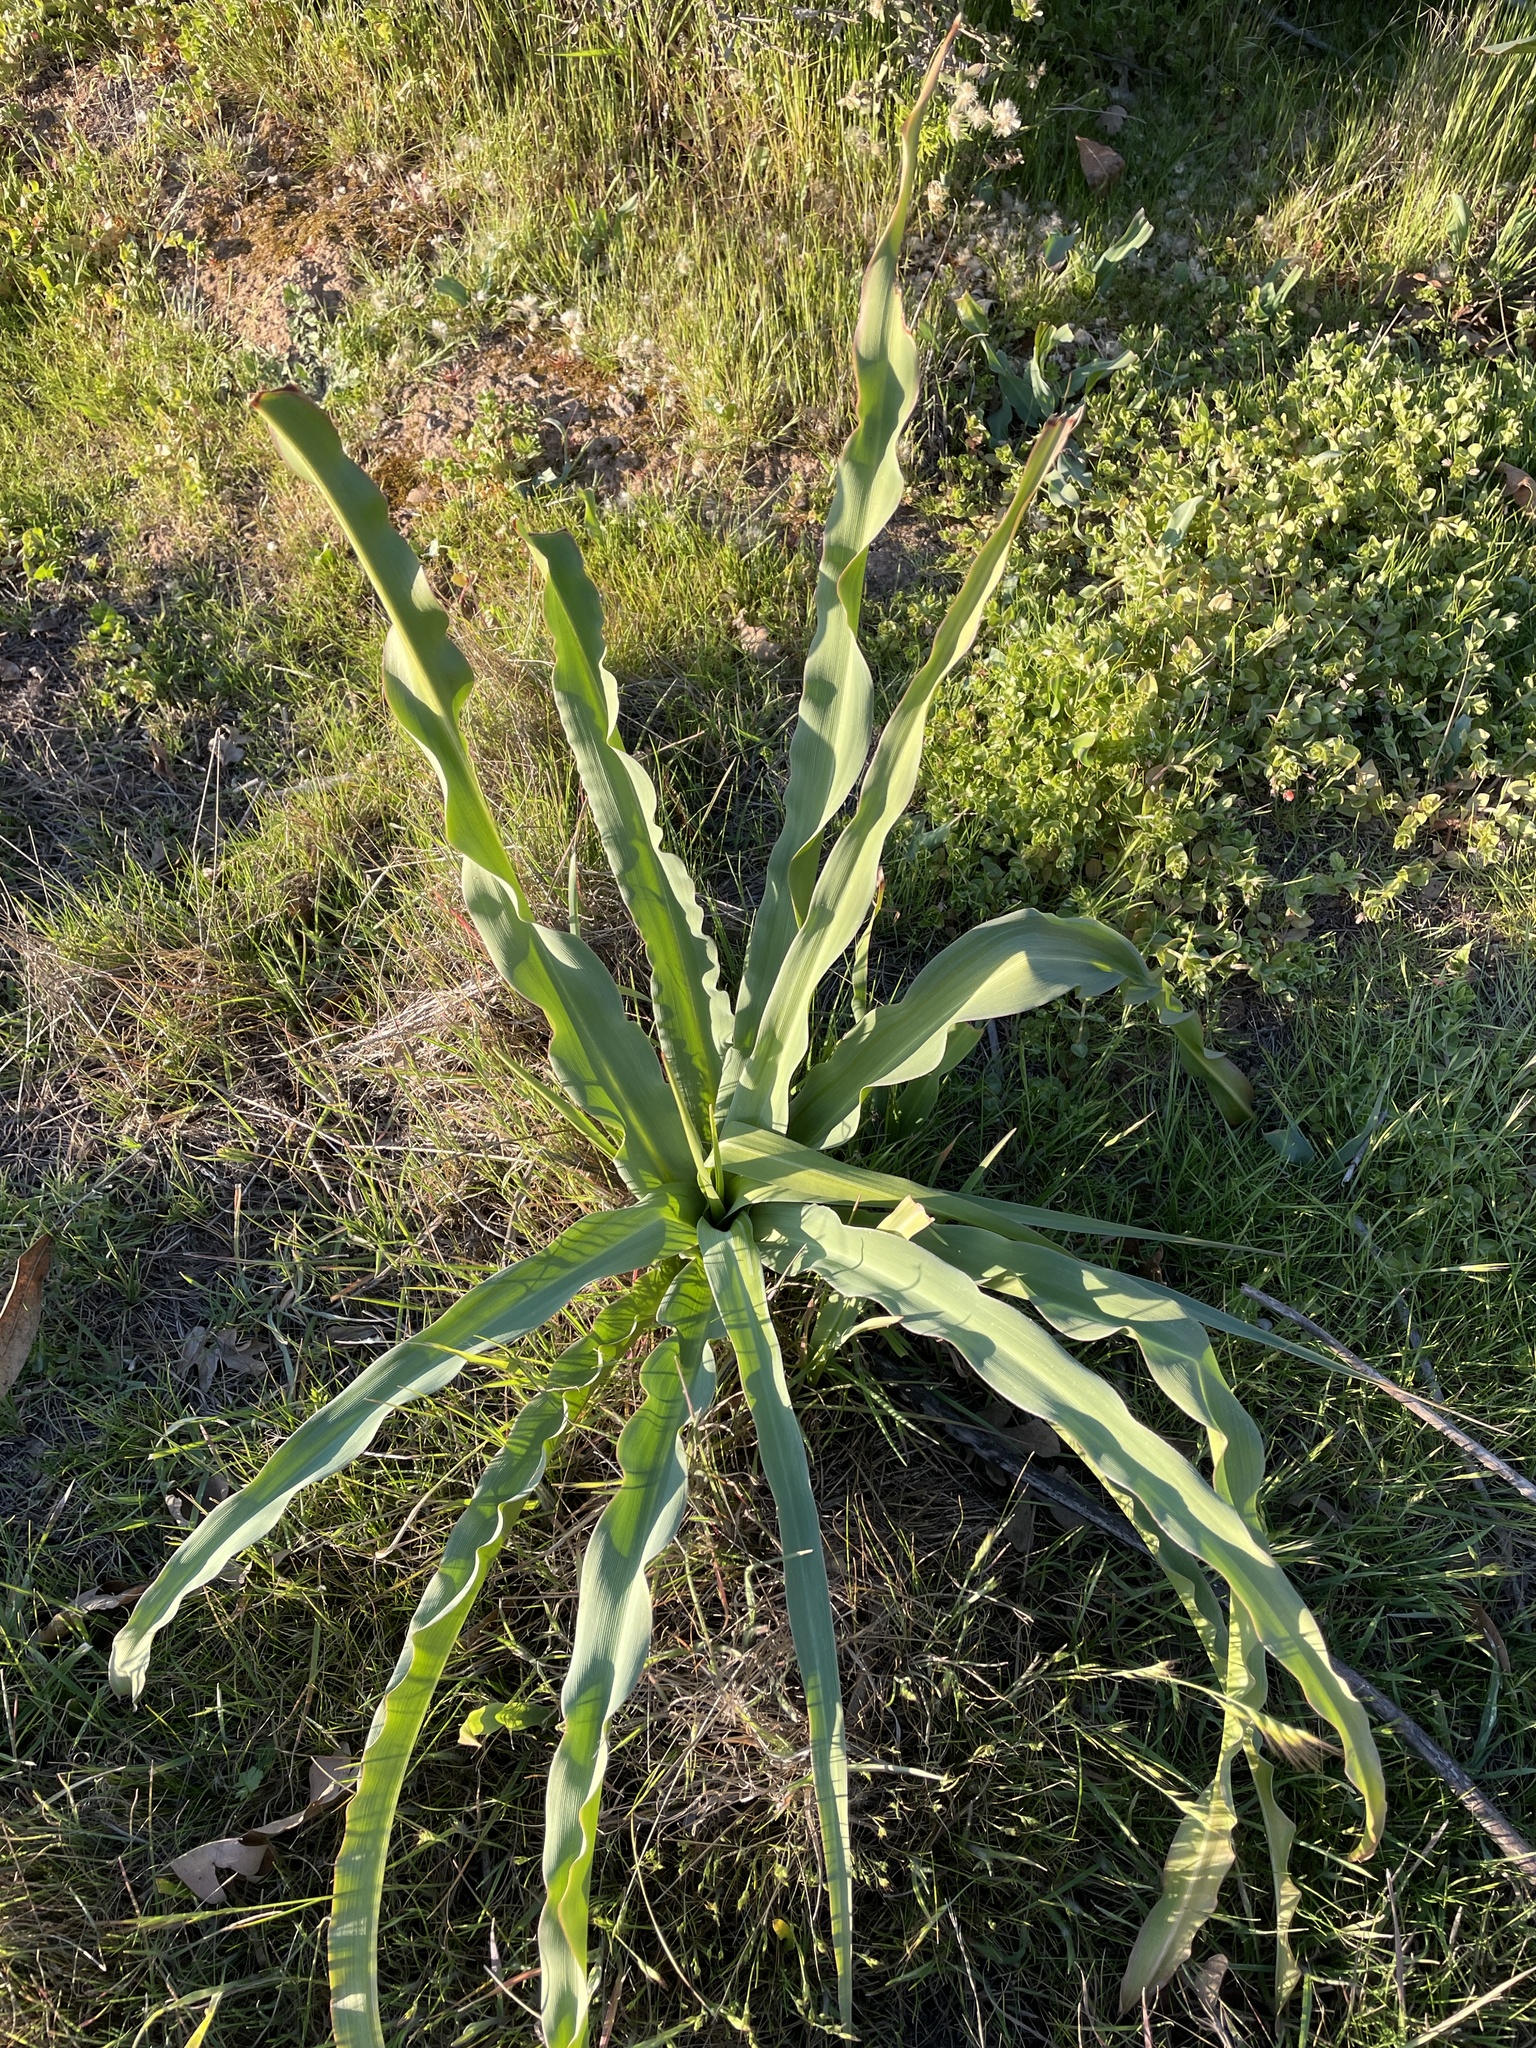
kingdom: Plantae
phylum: Tracheophyta
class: Liliopsida
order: Asparagales
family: Asparagaceae
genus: Chlorogalum
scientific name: Chlorogalum pomeridianum
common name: Amole
